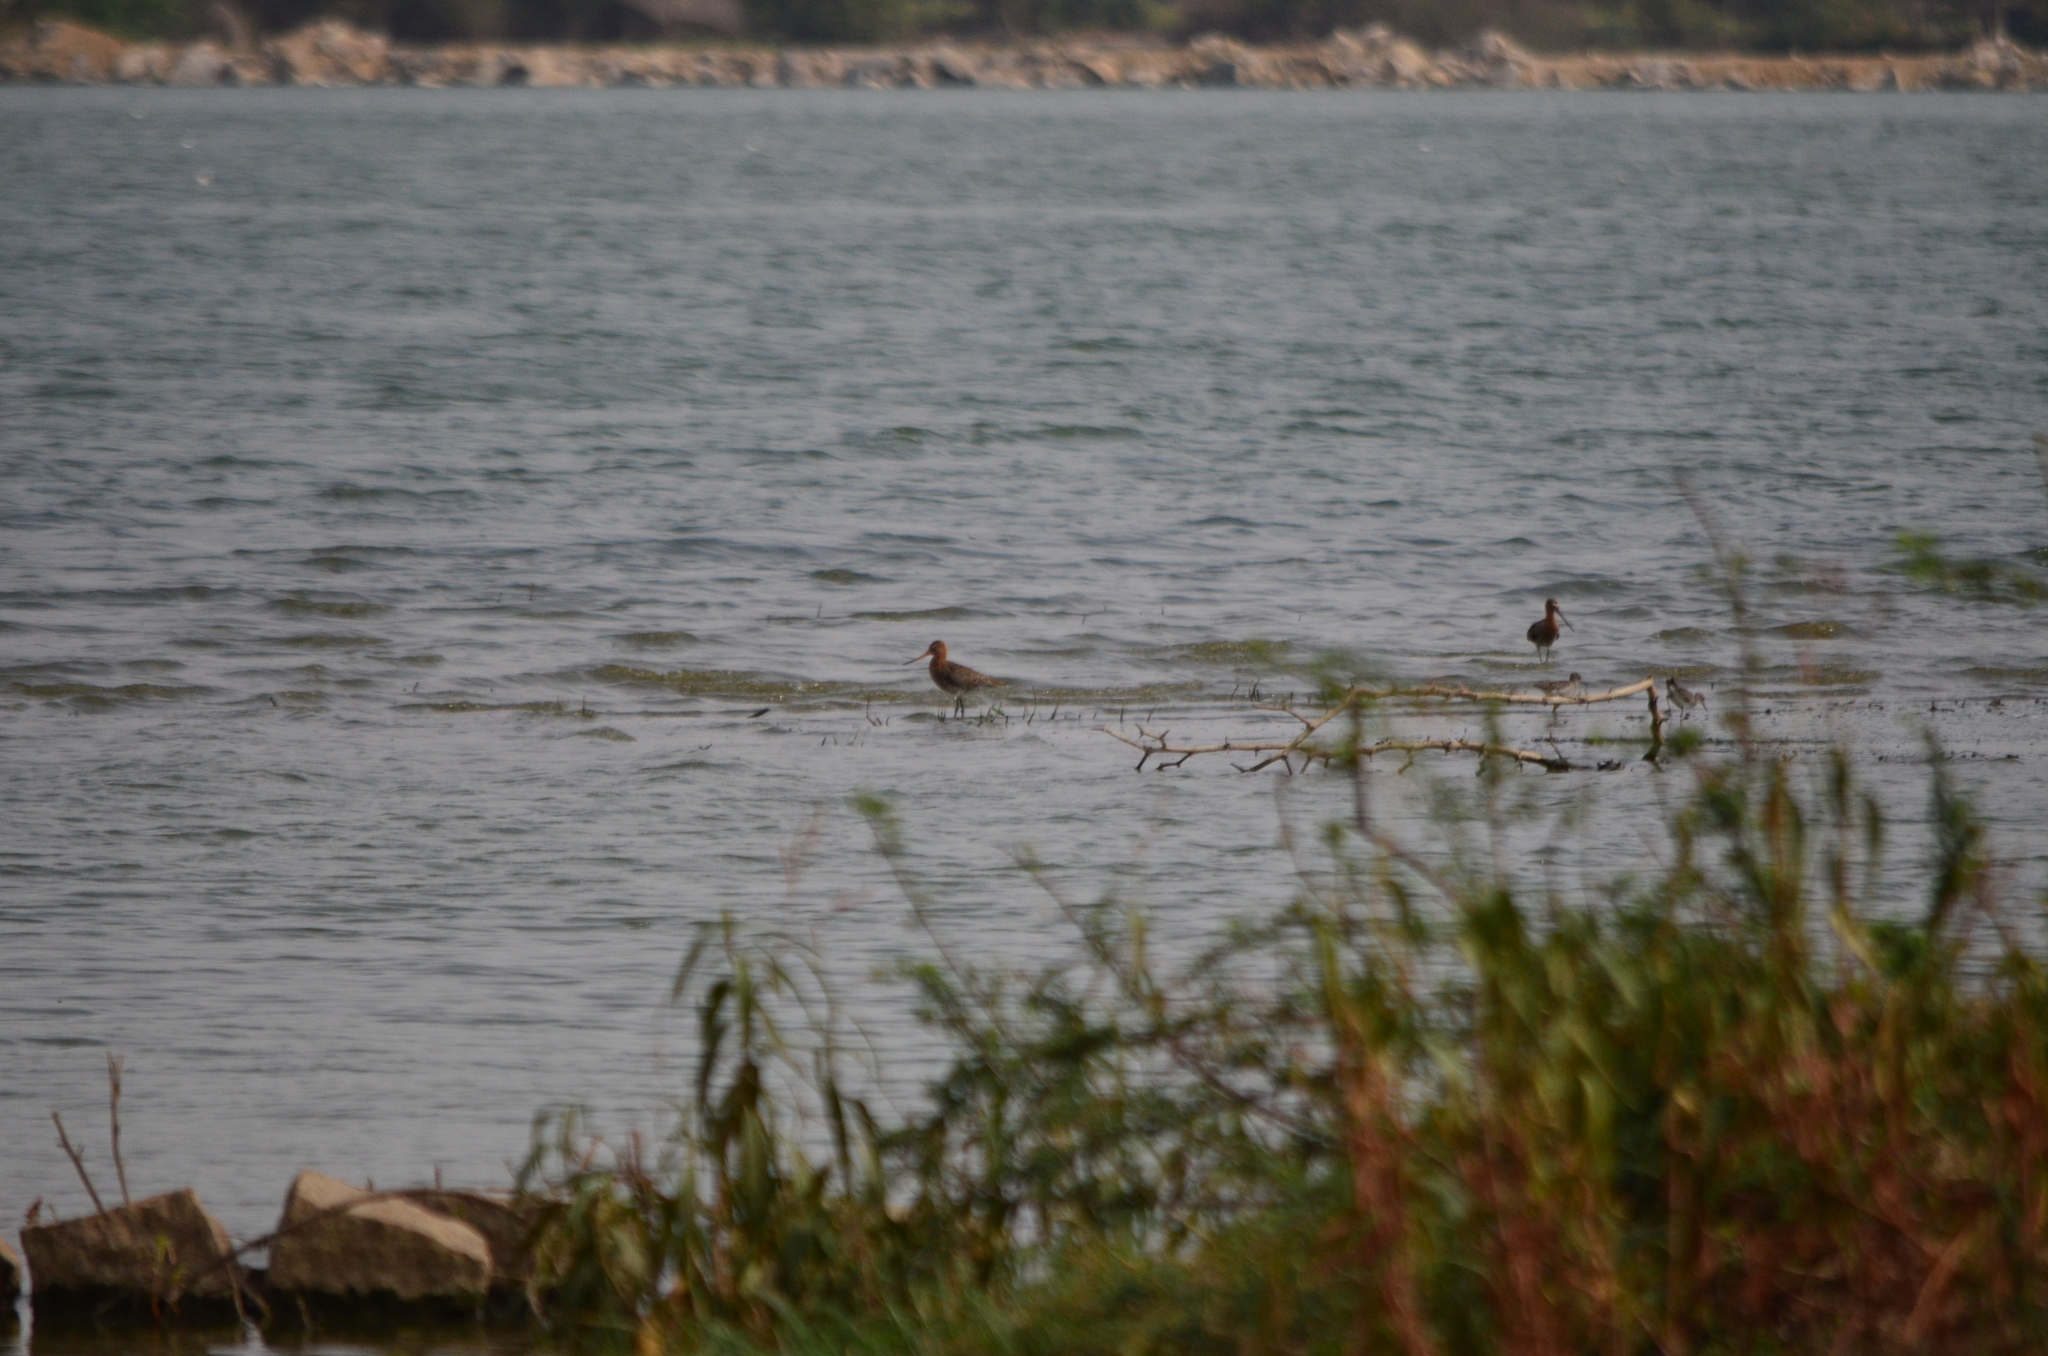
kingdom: Animalia
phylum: Chordata
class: Aves
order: Charadriiformes
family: Scolopacidae
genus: Limosa
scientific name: Limosa limosa
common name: Black-tailed godwit
